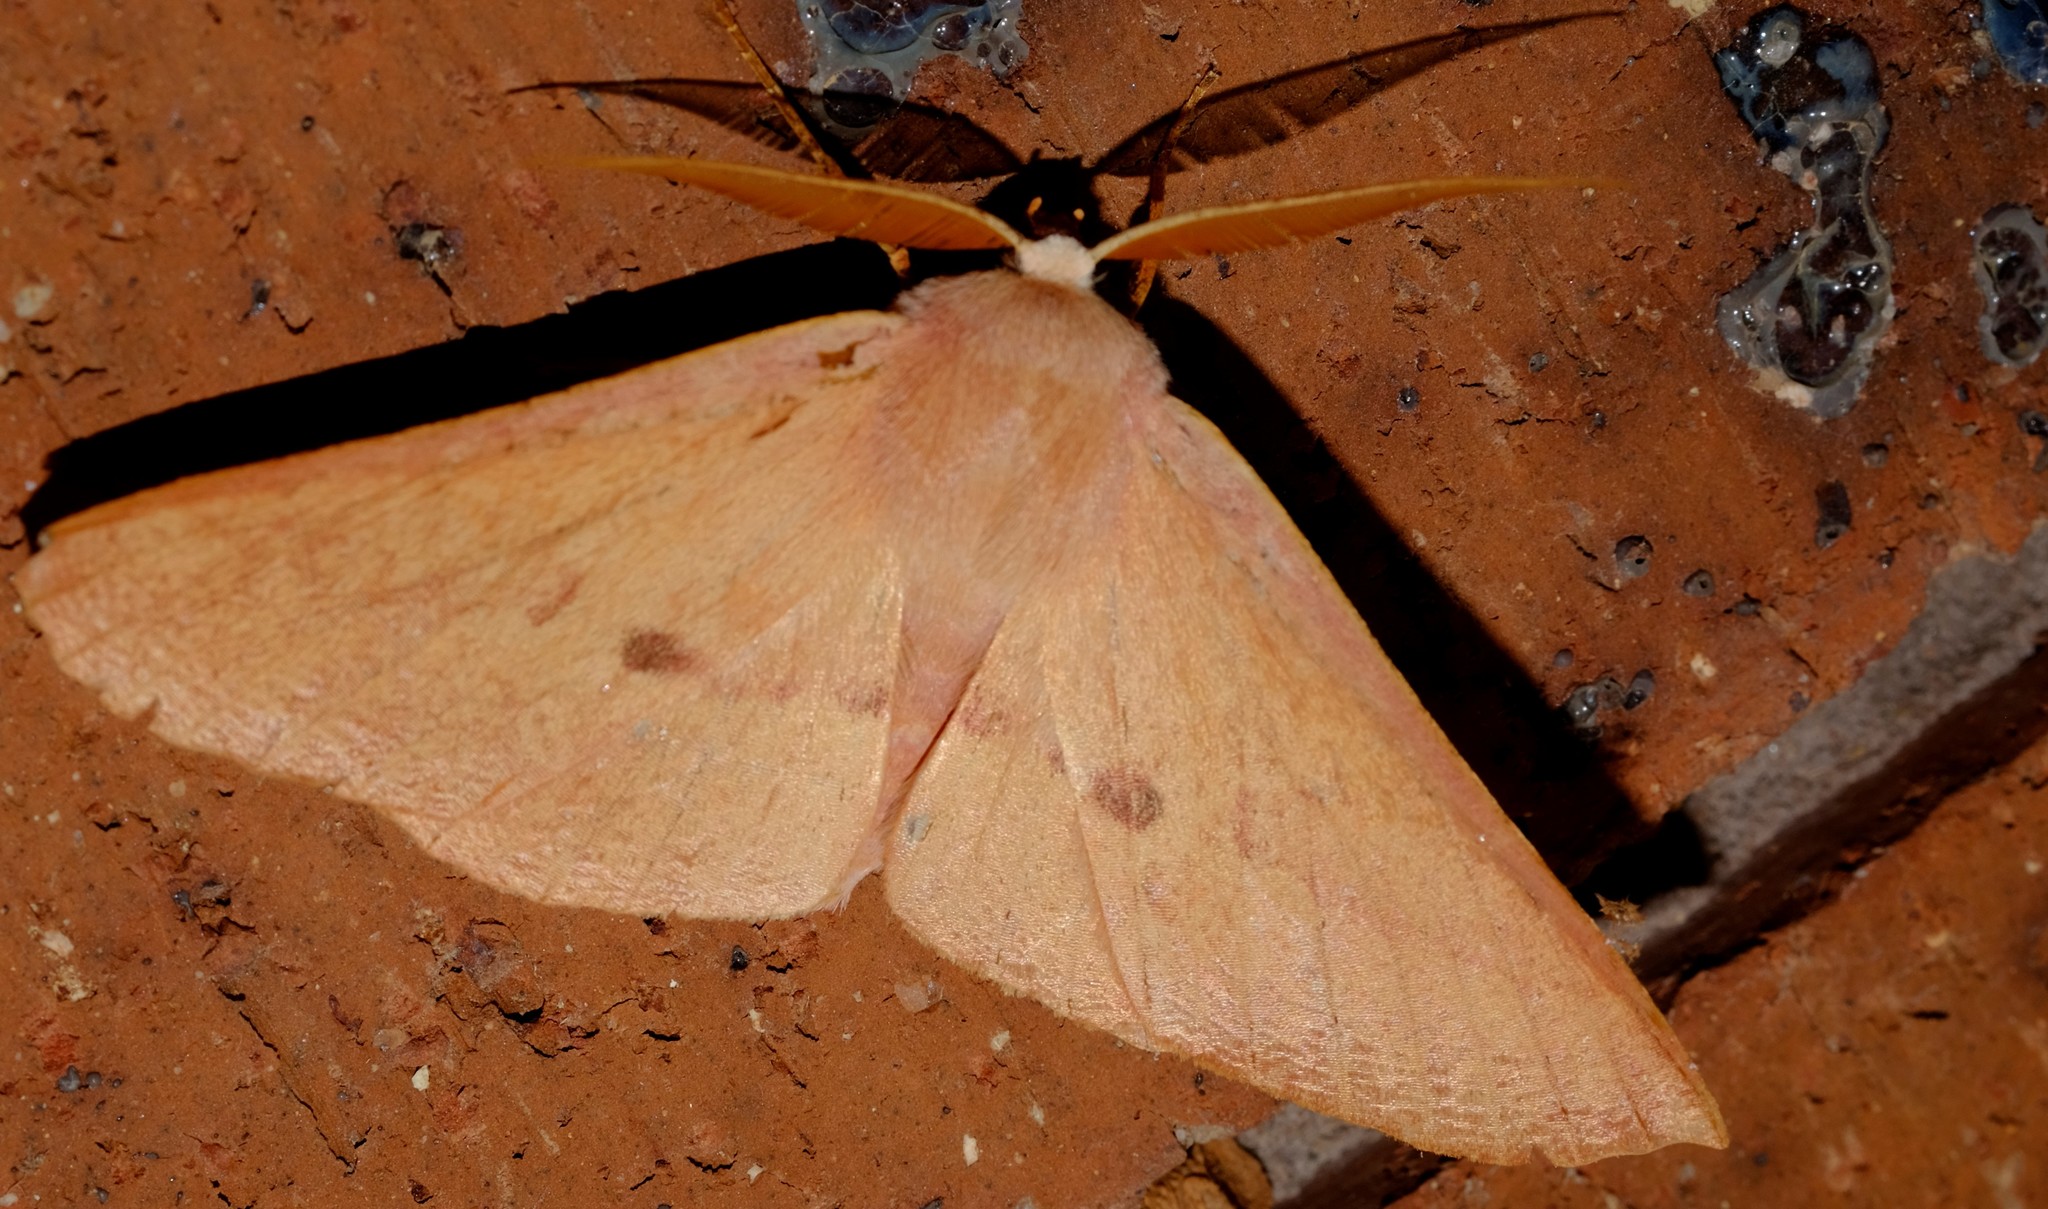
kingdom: Animalia
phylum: Arthropoda
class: Insecta
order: Lepidoptera
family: Geometridae
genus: Monoctenia
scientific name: Monoctenia falernaria
